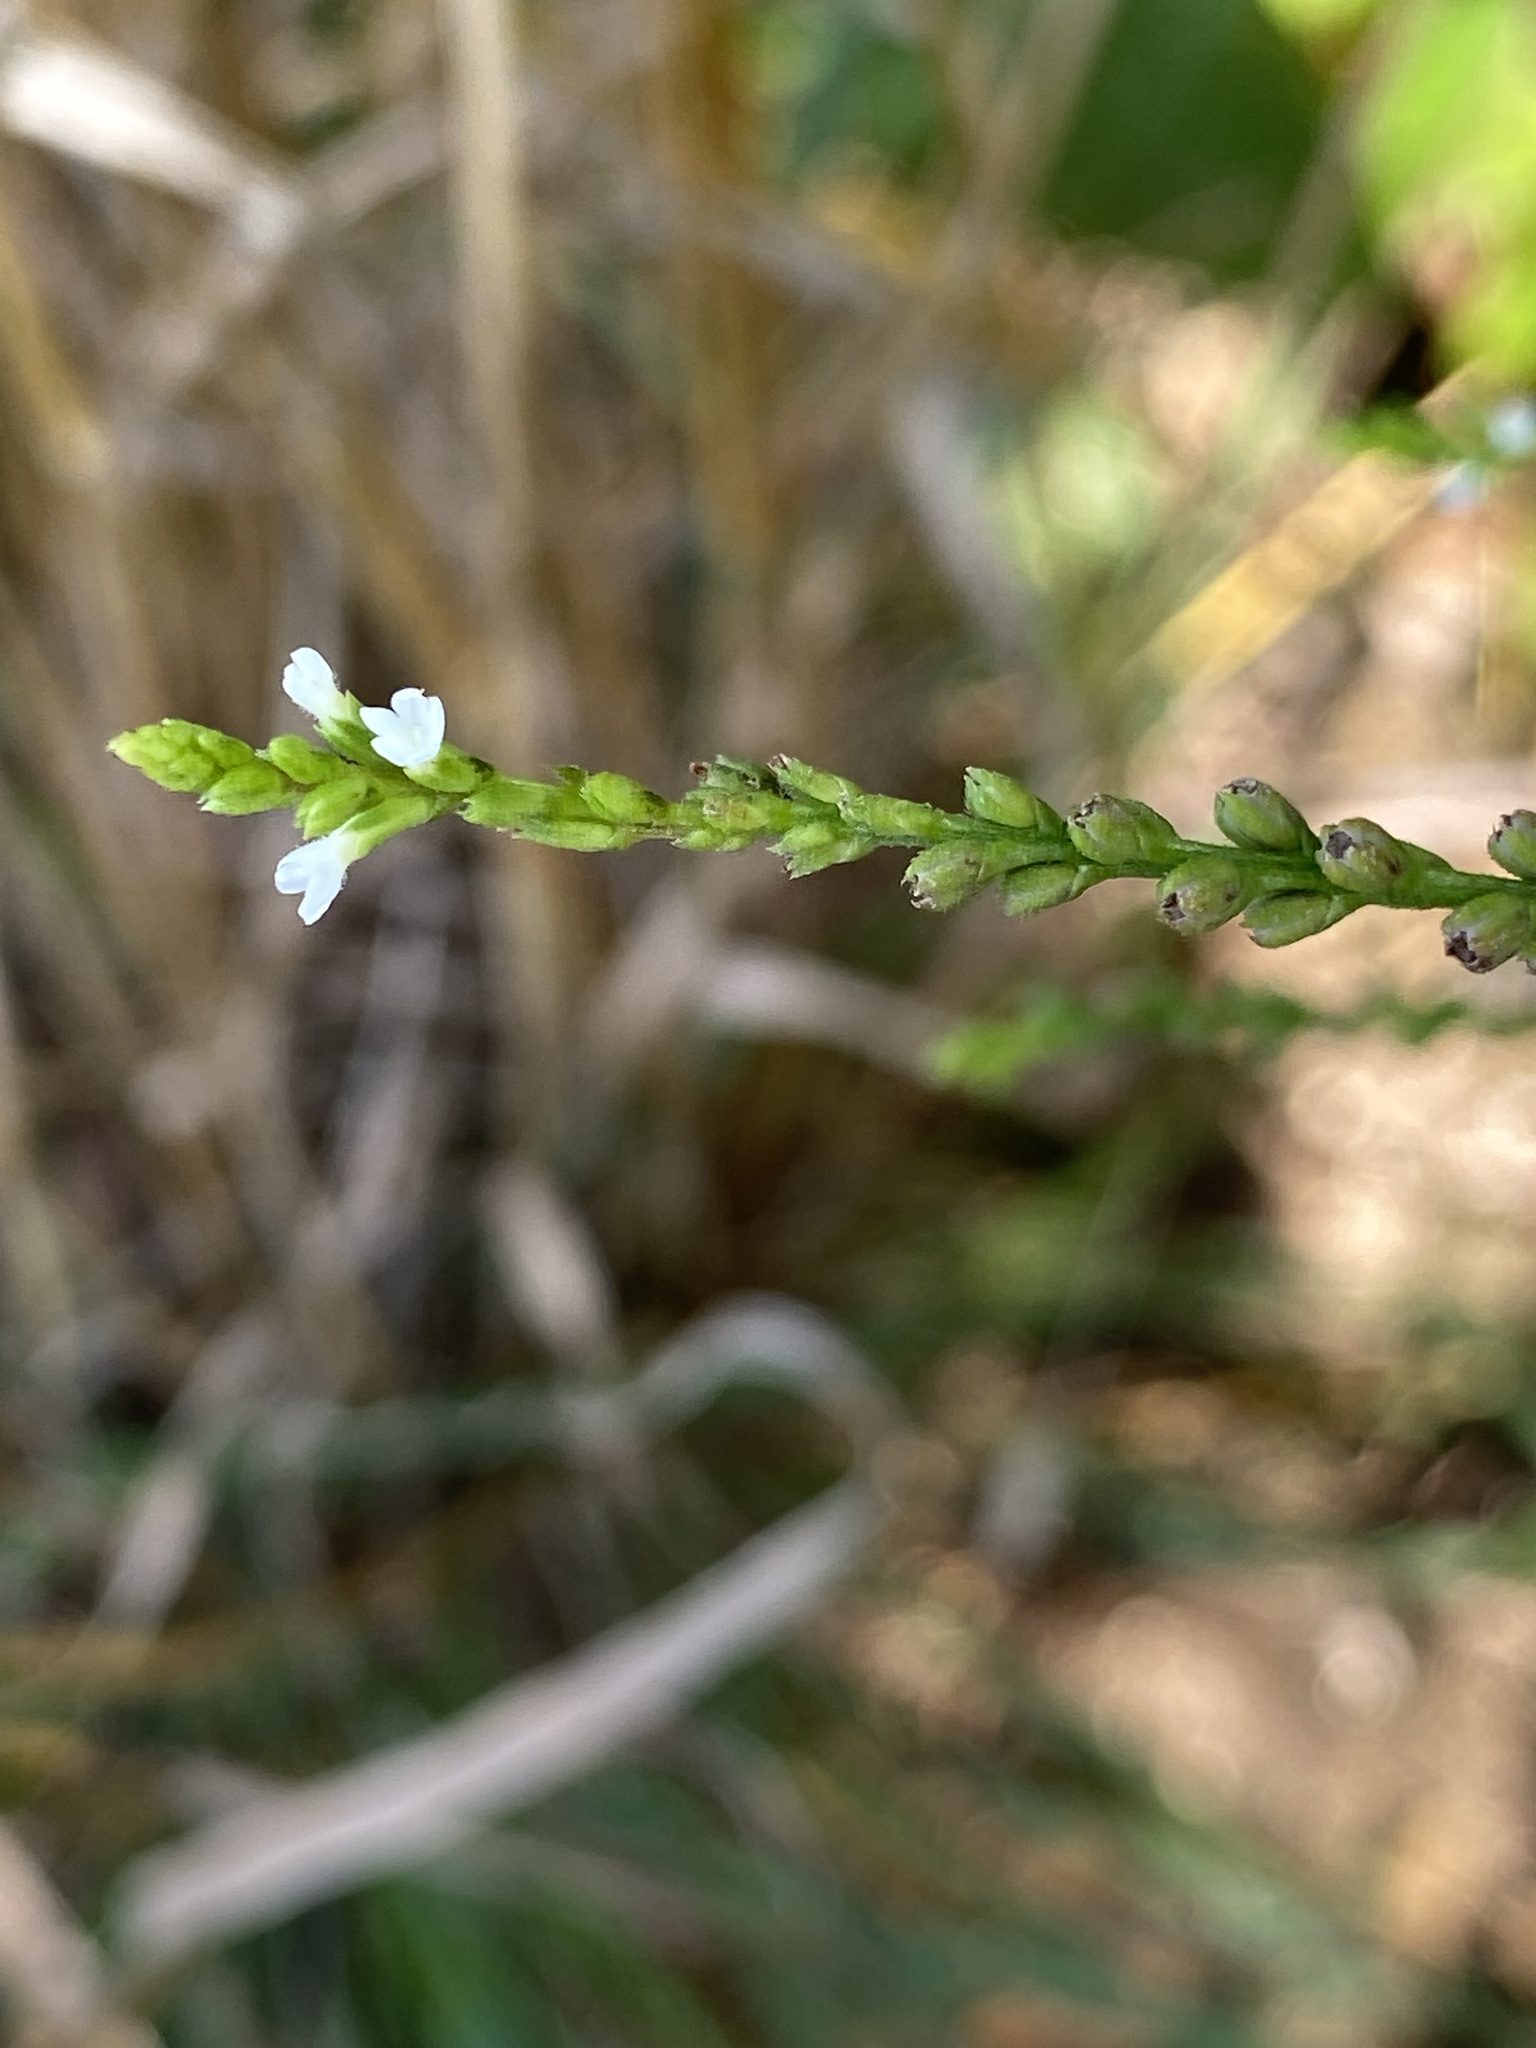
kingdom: Plantae
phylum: Tracheophyta
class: Magnoliopsida
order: Lamiales
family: Verbenaceae
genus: Verbena
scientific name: Verbena urticifolia
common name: Nettle-leaved vervain
